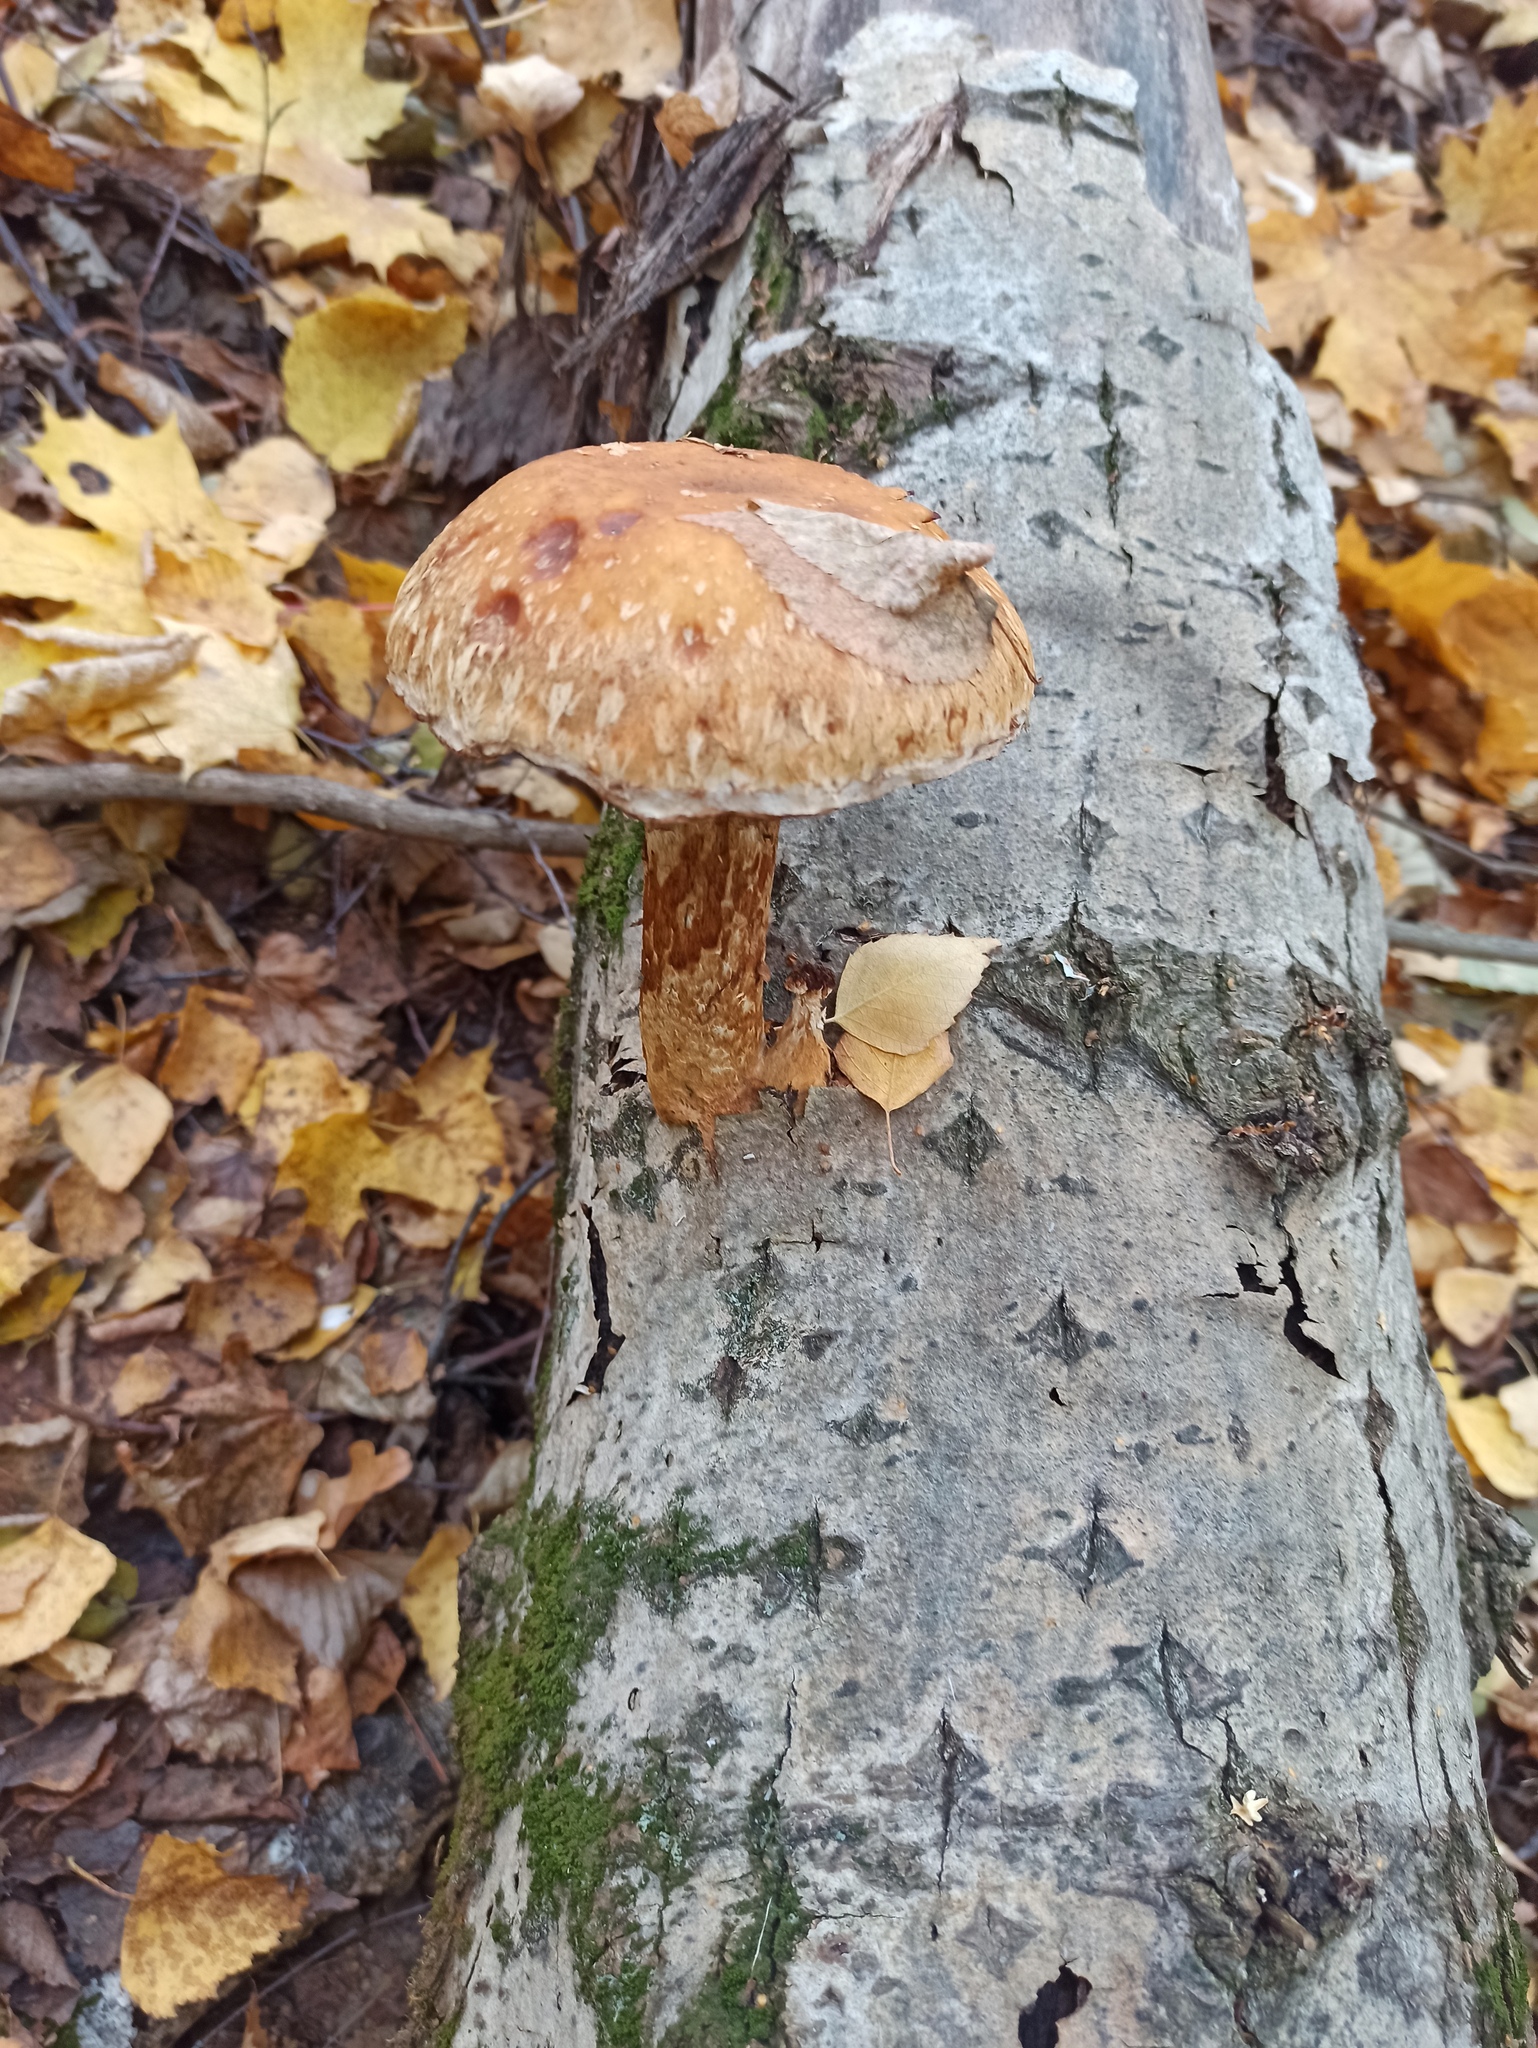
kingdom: Fungi
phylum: Basidiomycota
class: Agaricomycetes
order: Agaricales
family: Strophariaceae
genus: Pholiota
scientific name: Pholiota populnea
